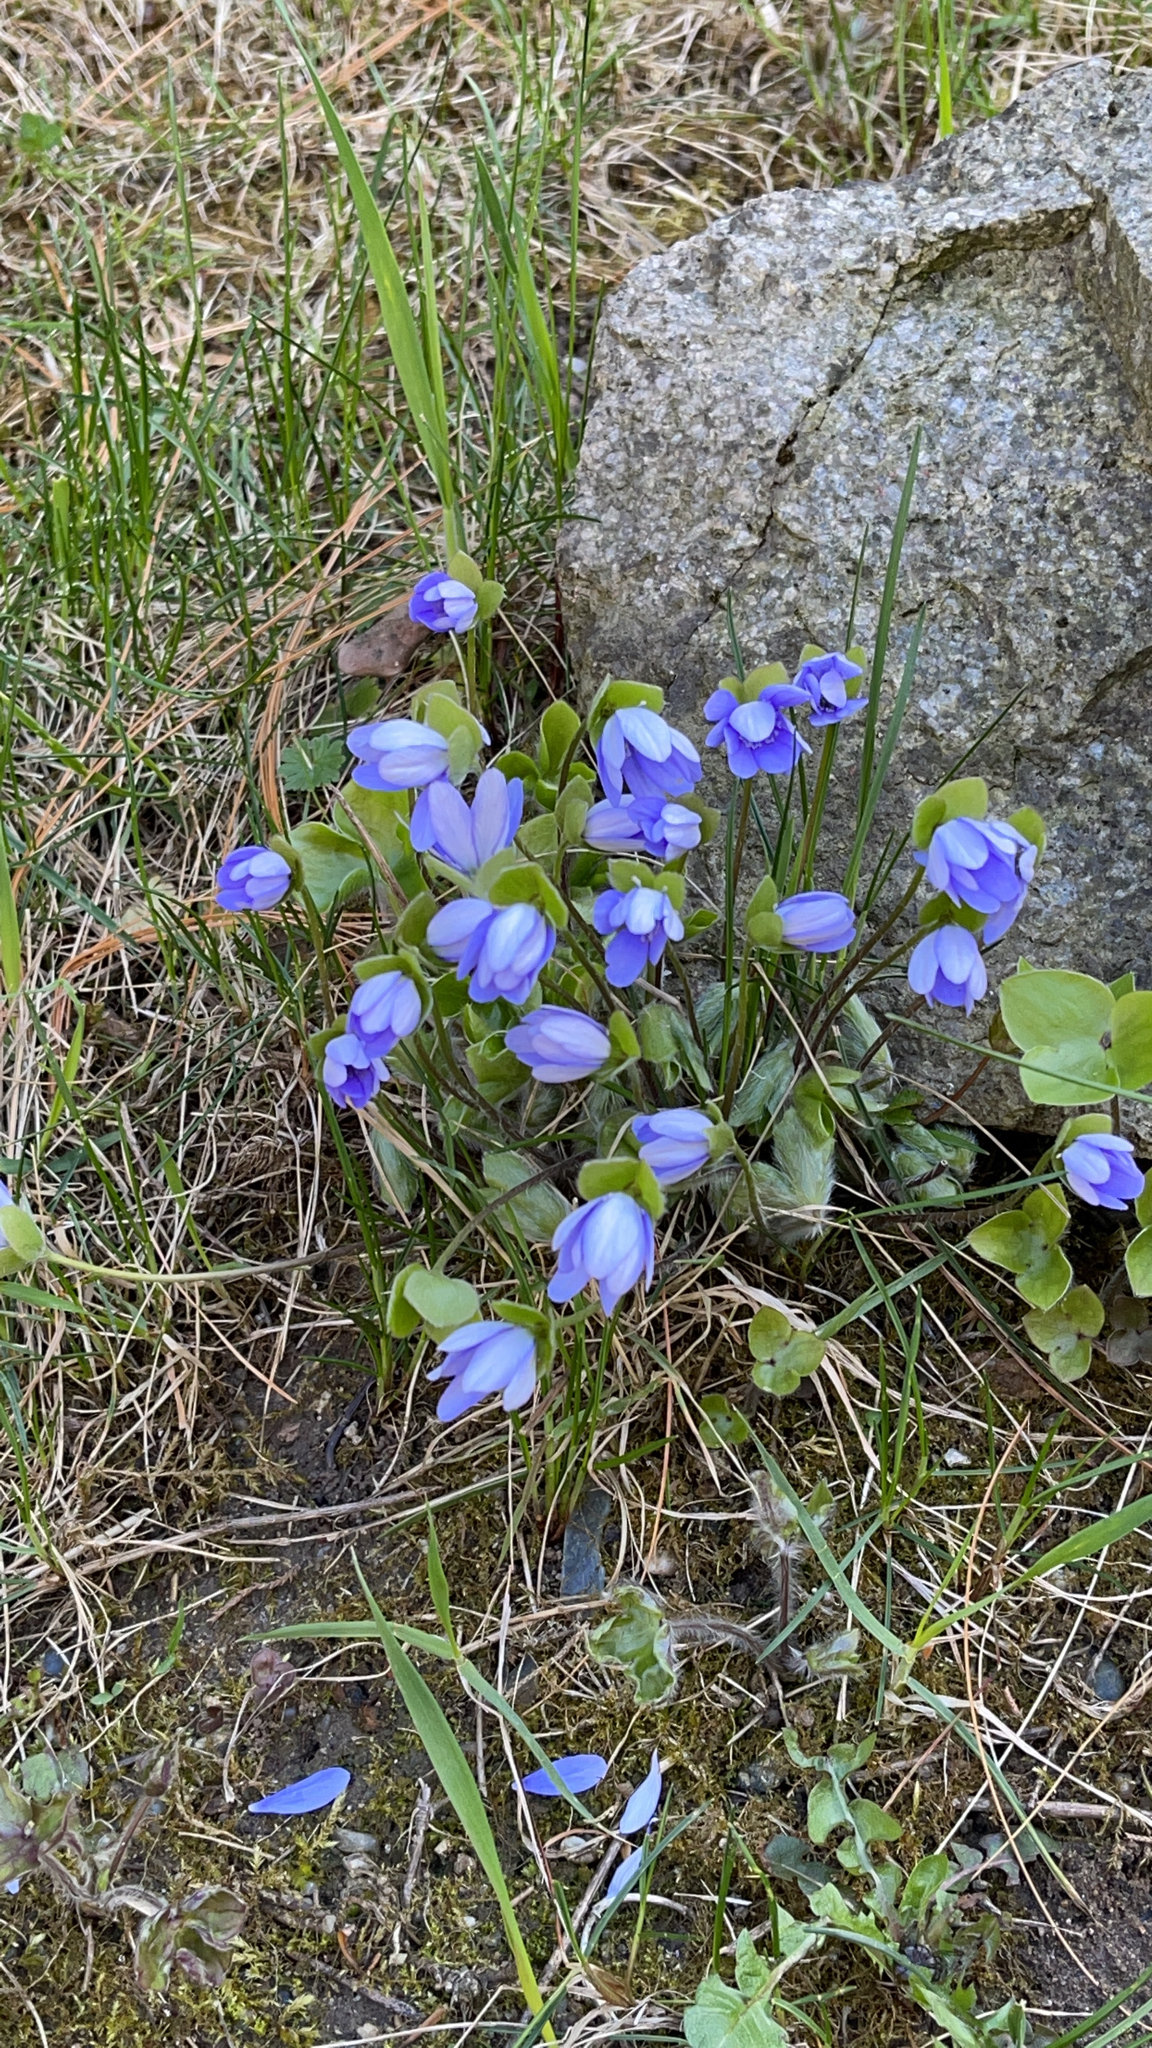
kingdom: Plantae
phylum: Tracheophyta
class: Magnoliopsida
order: Ranunculales
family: Ranunculaceae
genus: Hepatica
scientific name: Hepatica nobilis
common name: Liverleaf
